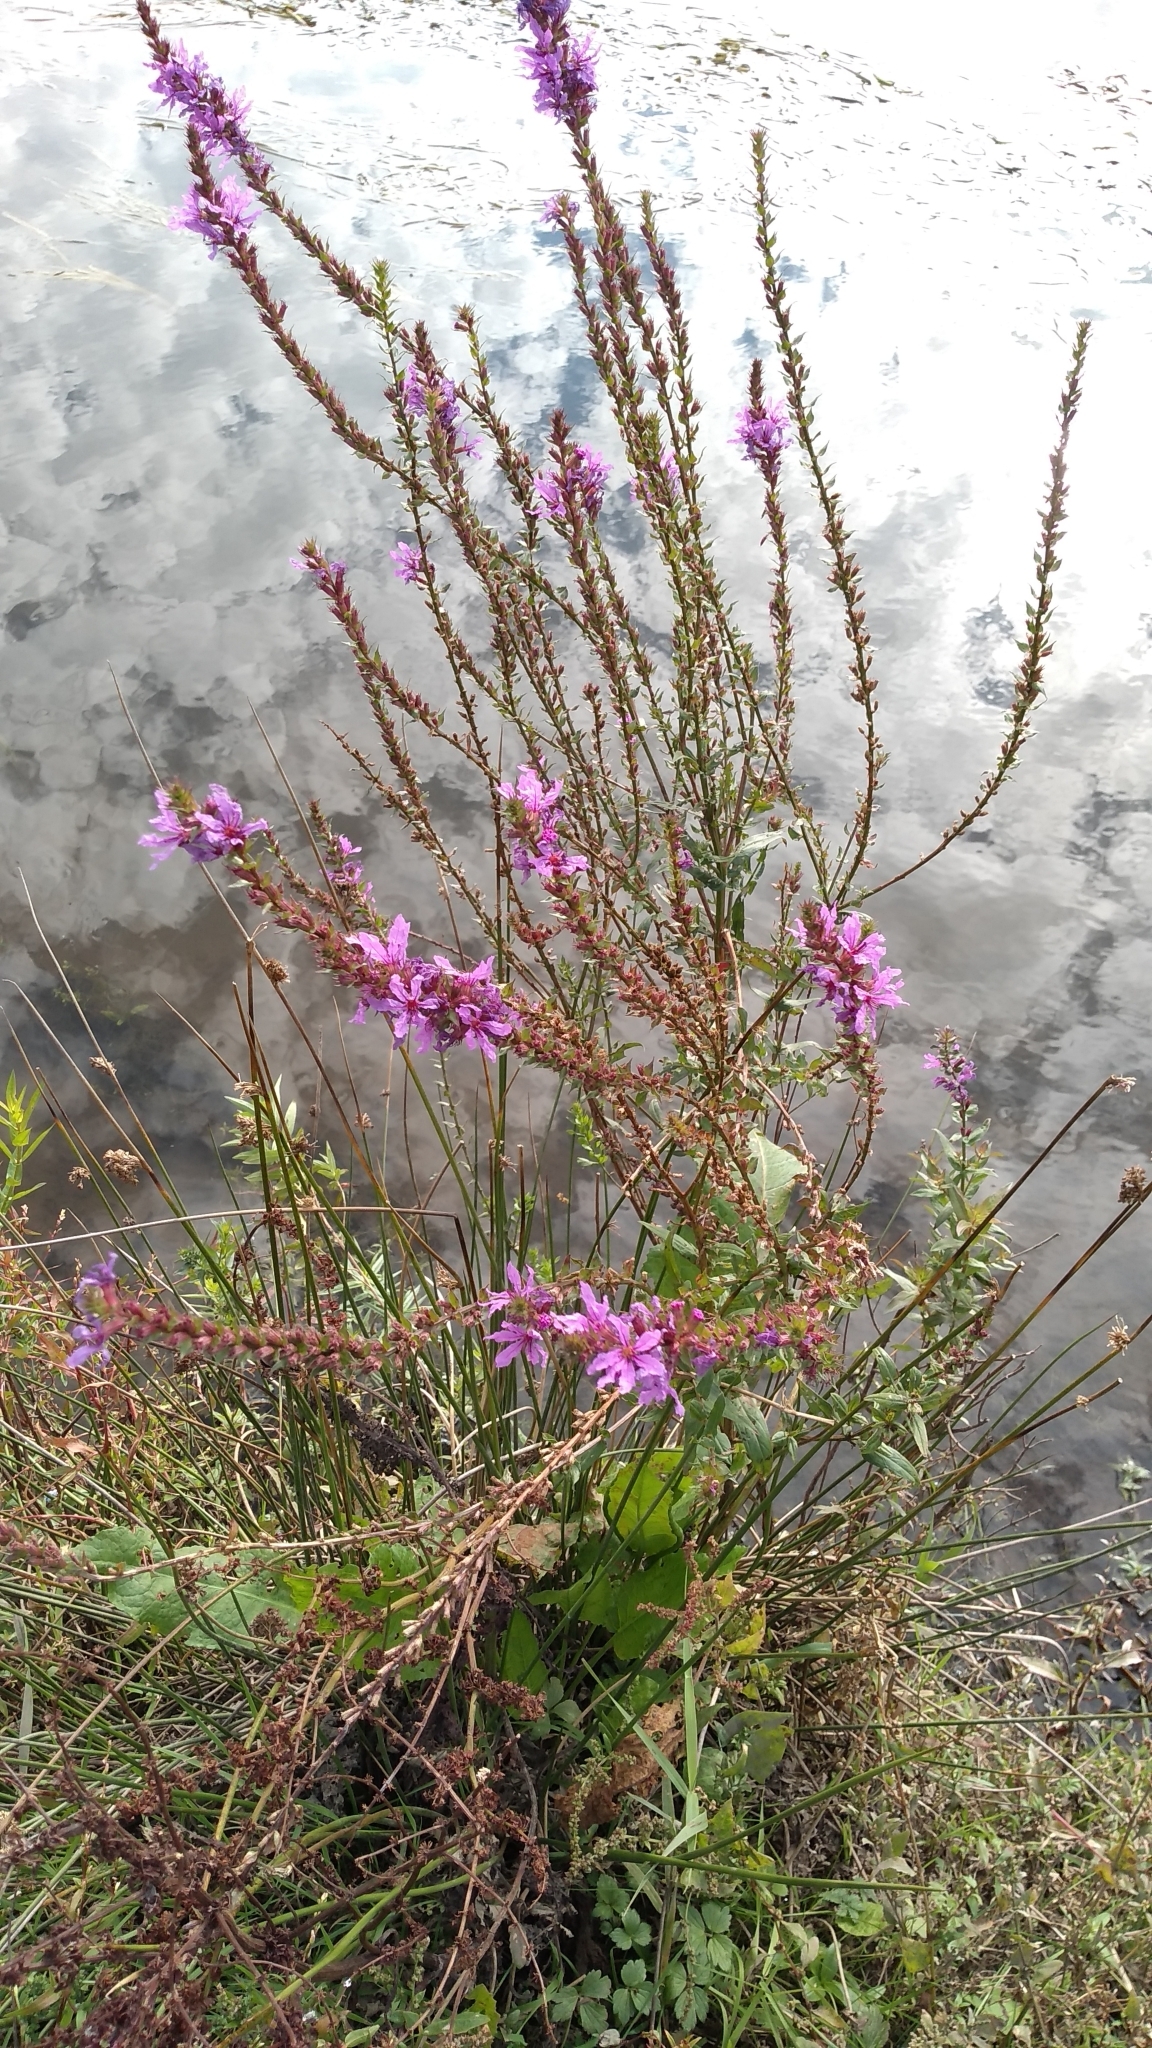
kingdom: Plantae
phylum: Tracheophyta
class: Magnoliopsida
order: Myrtales
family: Lythraceae
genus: Lythrum
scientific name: Lythrum salicaria
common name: Purple loosestrife
